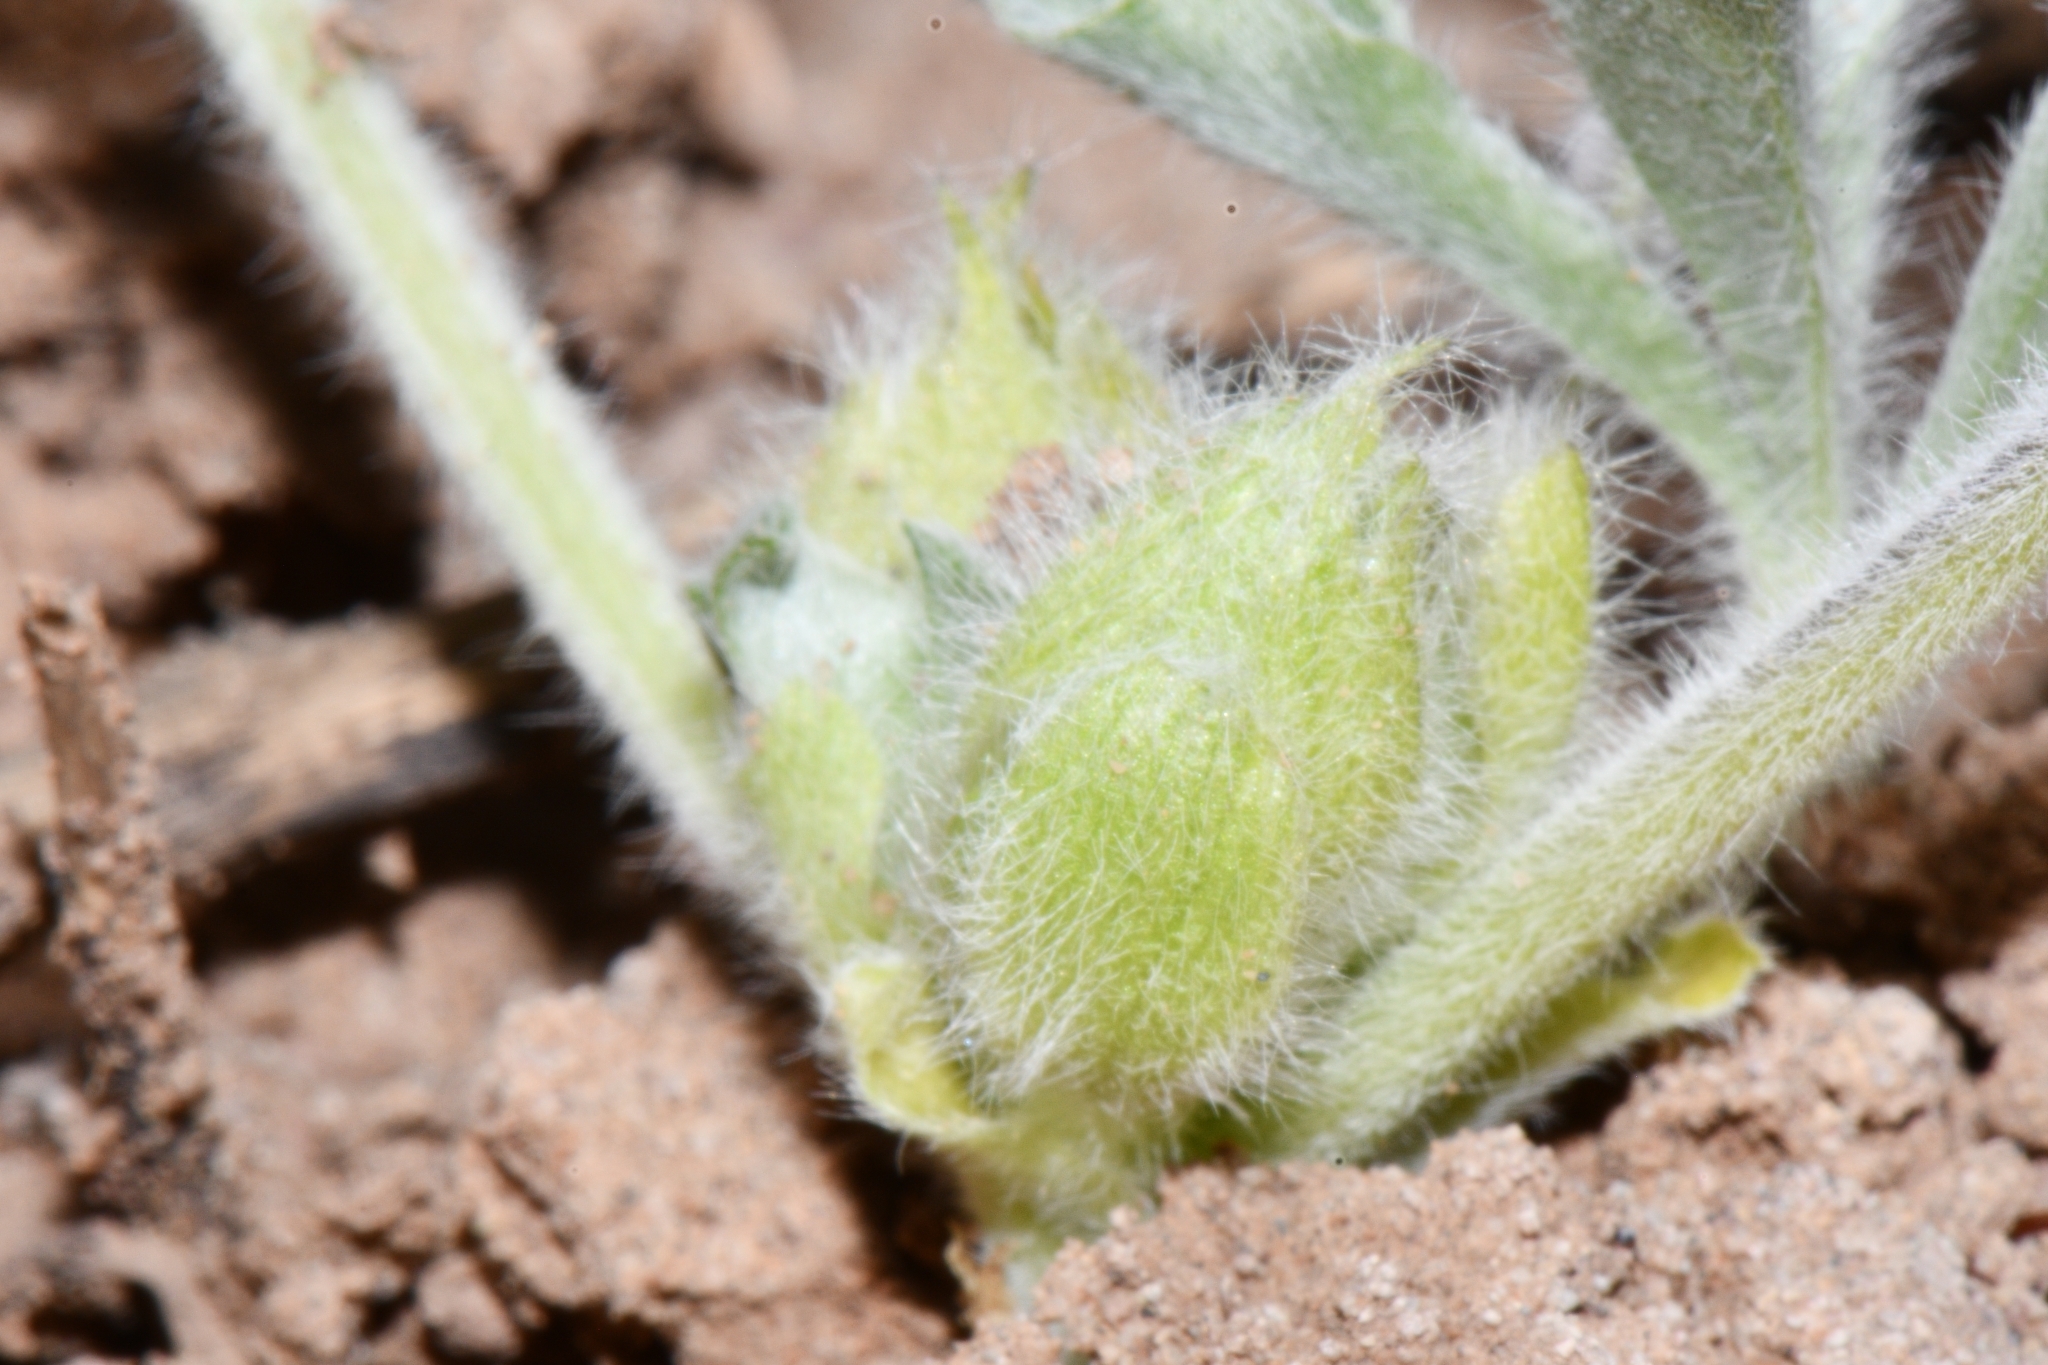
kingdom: Plantae
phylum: Tracheophyta
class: Magnoliopsida
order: Fabales
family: Fabaceae
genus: Pediomelum
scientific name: Pediomelum mephiticum
